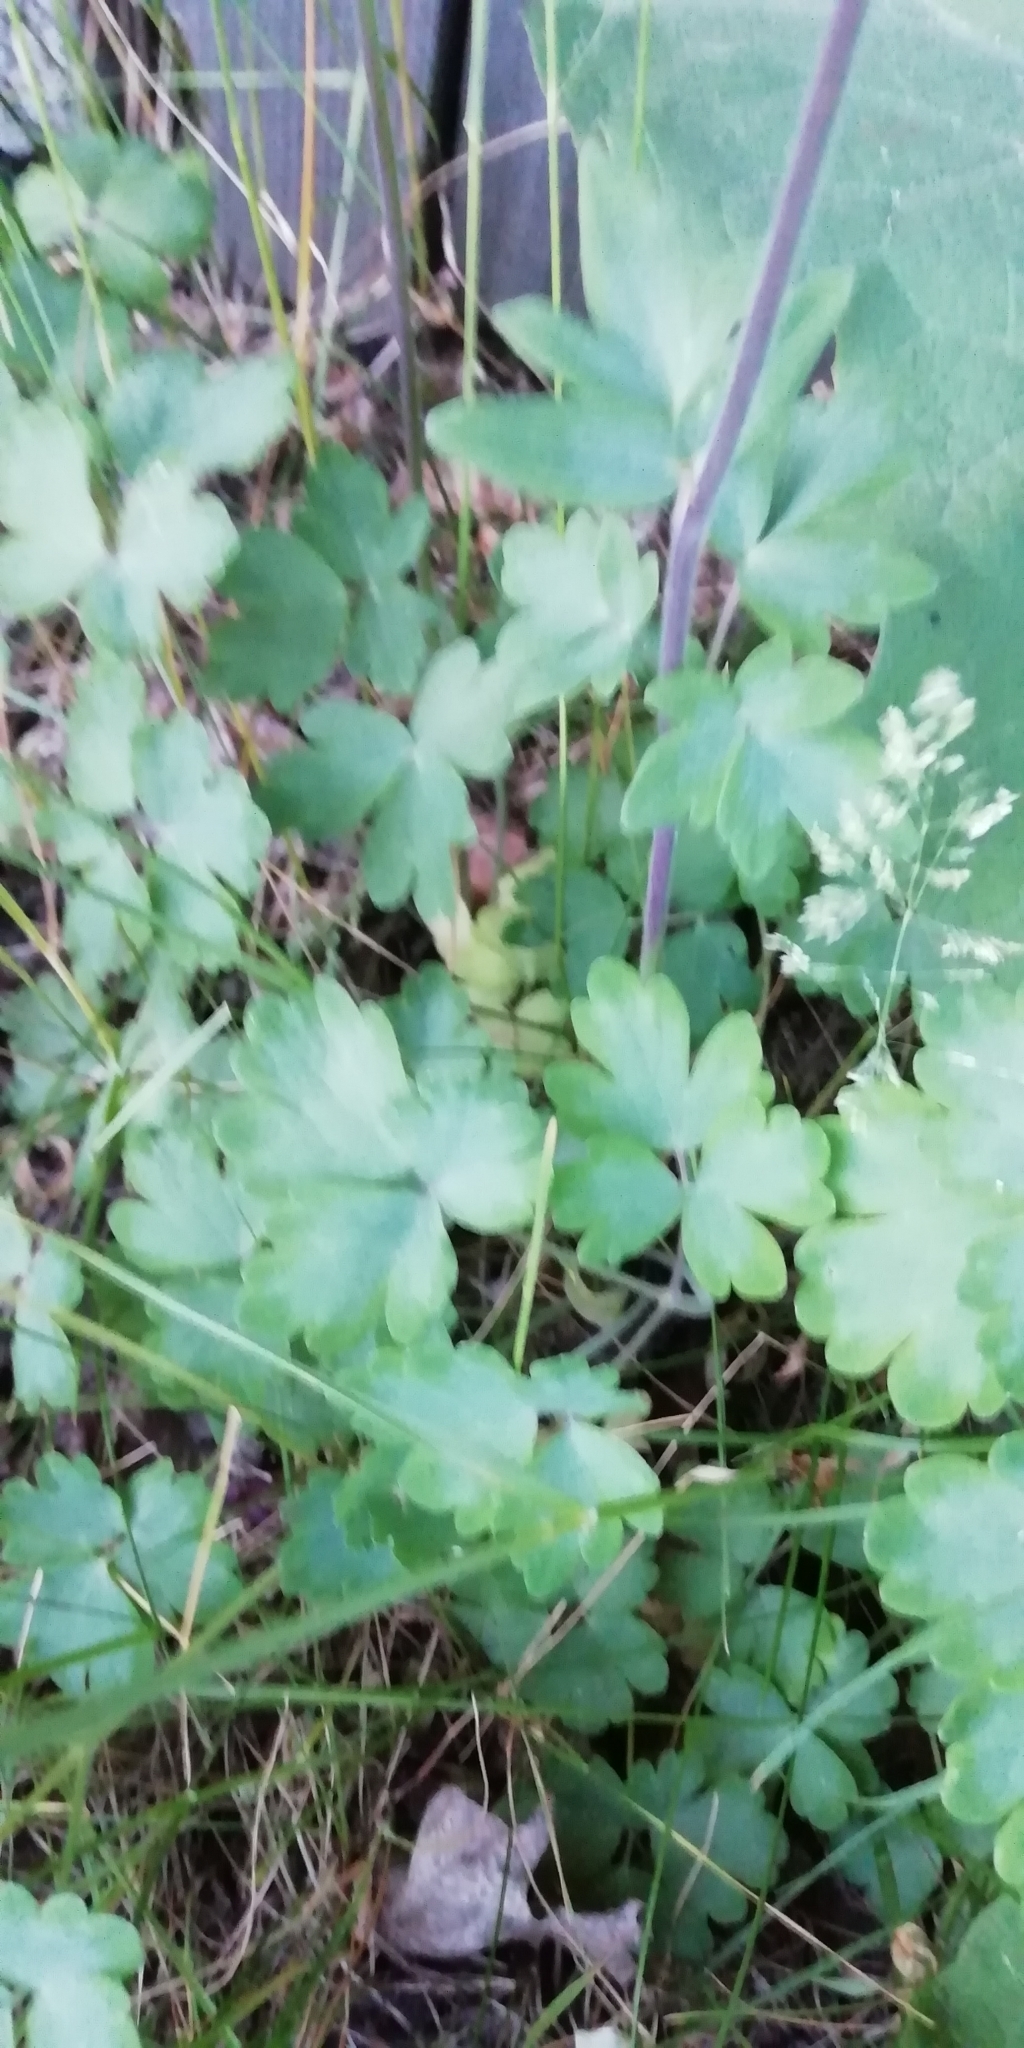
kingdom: Plantae
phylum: Tracheophyta
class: Magnoliopsida
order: Ranunculales
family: Ranunculaceae
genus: Aquilegia
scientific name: Aquilegia vulgaris
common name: Columbine
